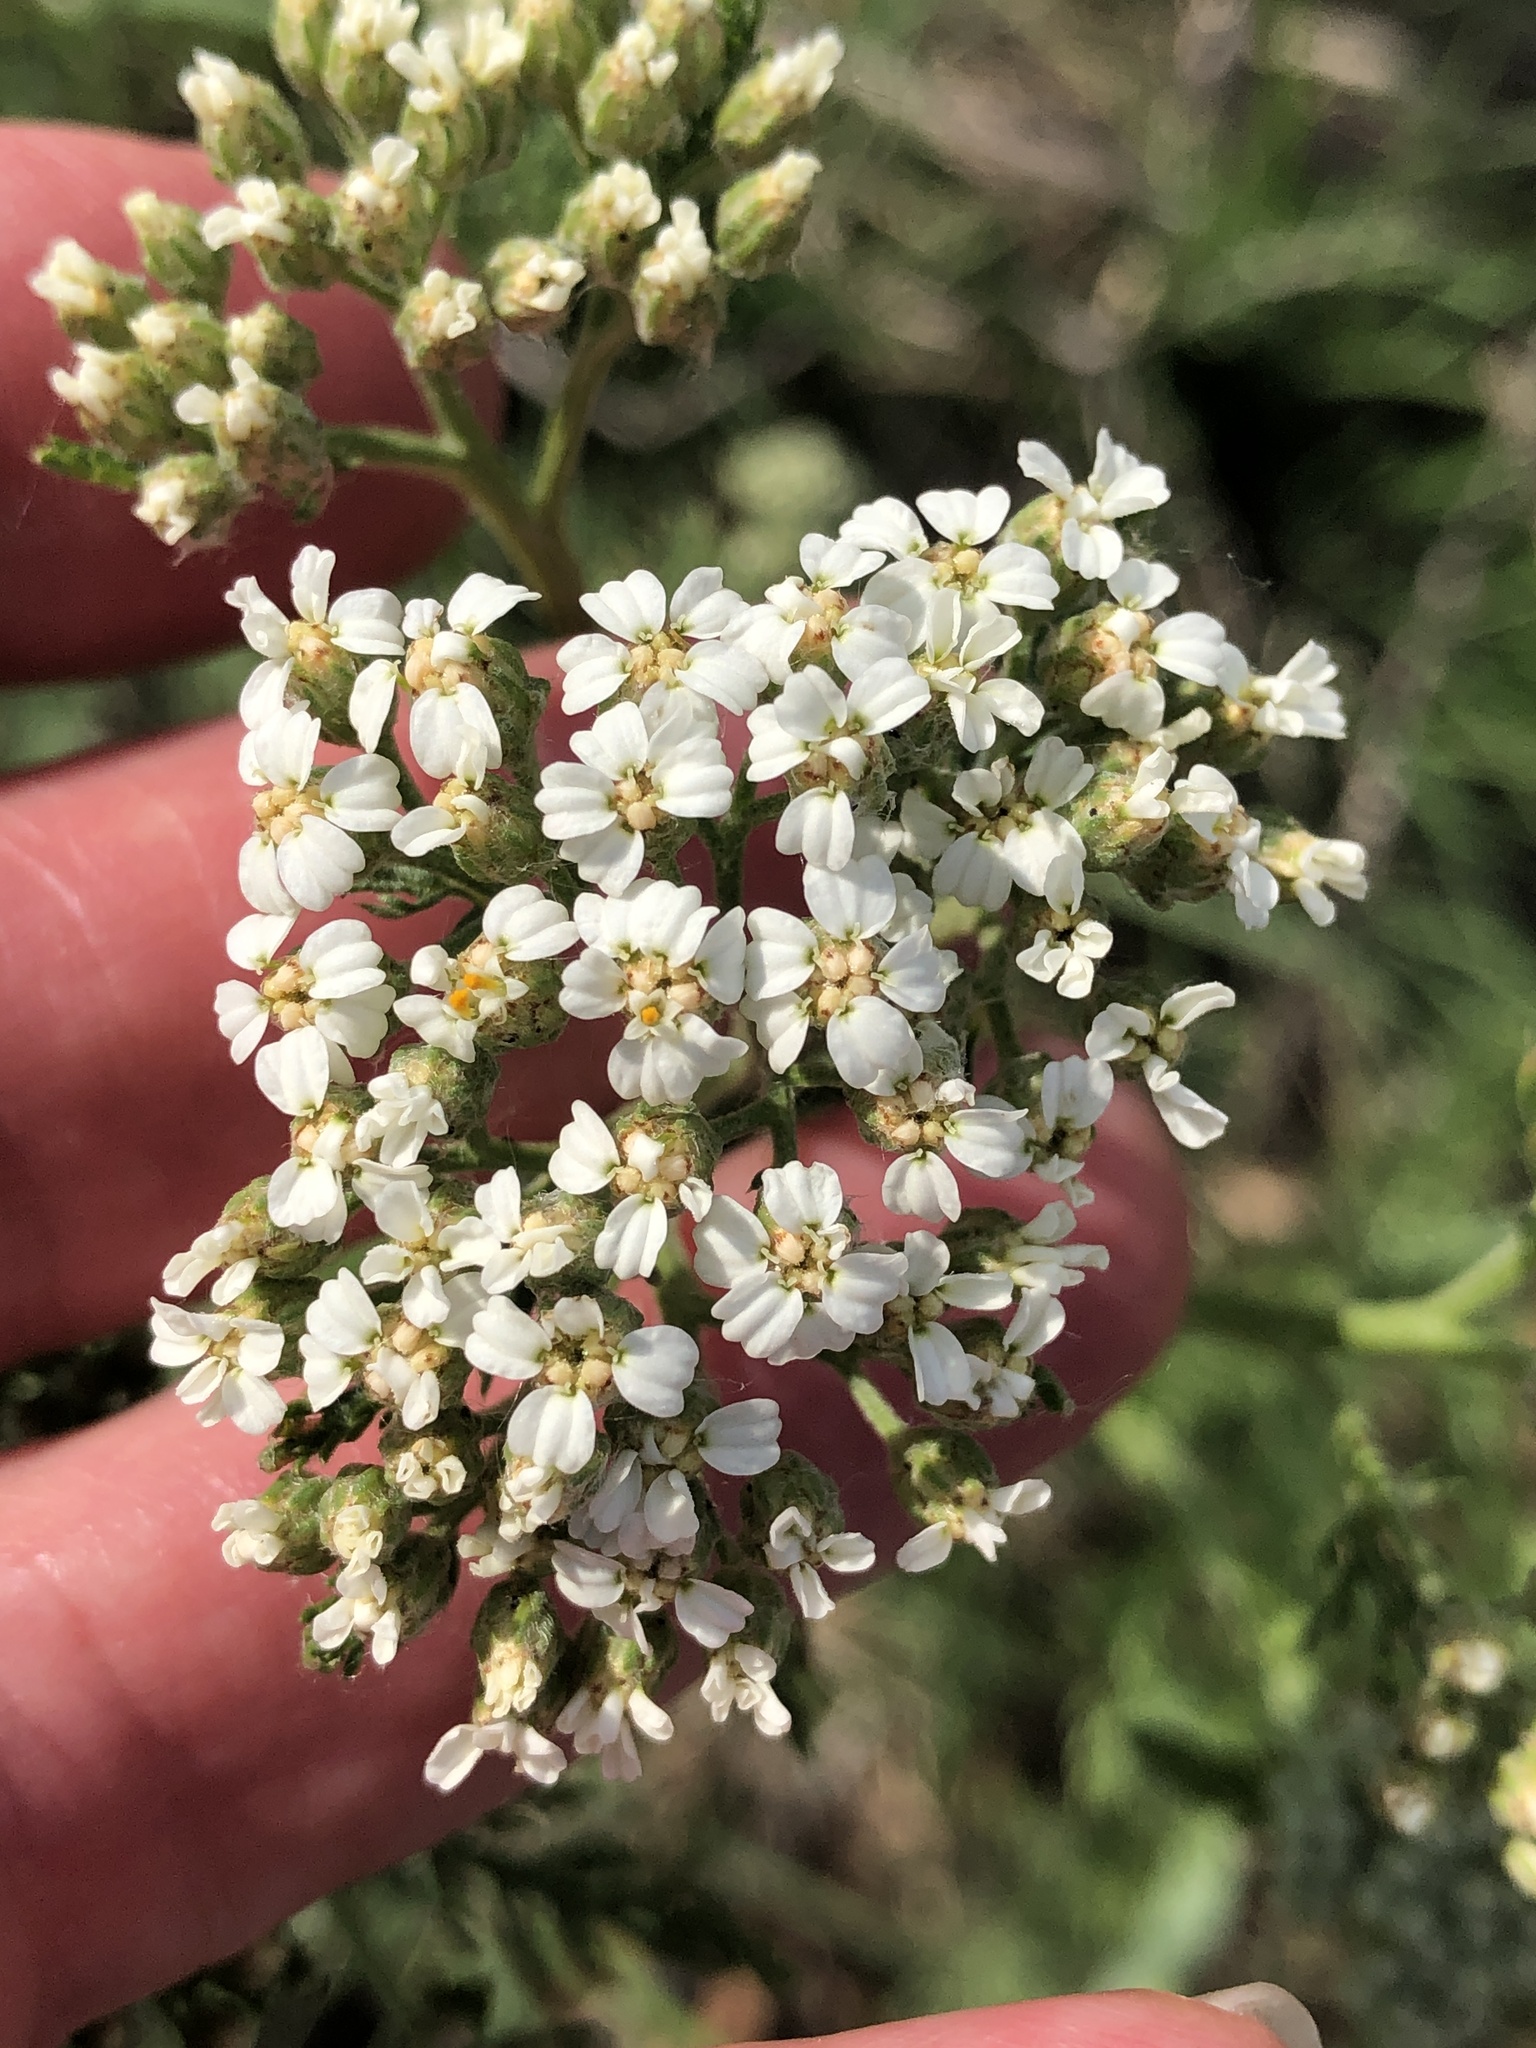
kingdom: Plantae
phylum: Tracheophyta
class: Magnoliopsida
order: Asterales
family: Asteraceae
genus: Achillea
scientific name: Achillea millefolium
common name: Yarrow
